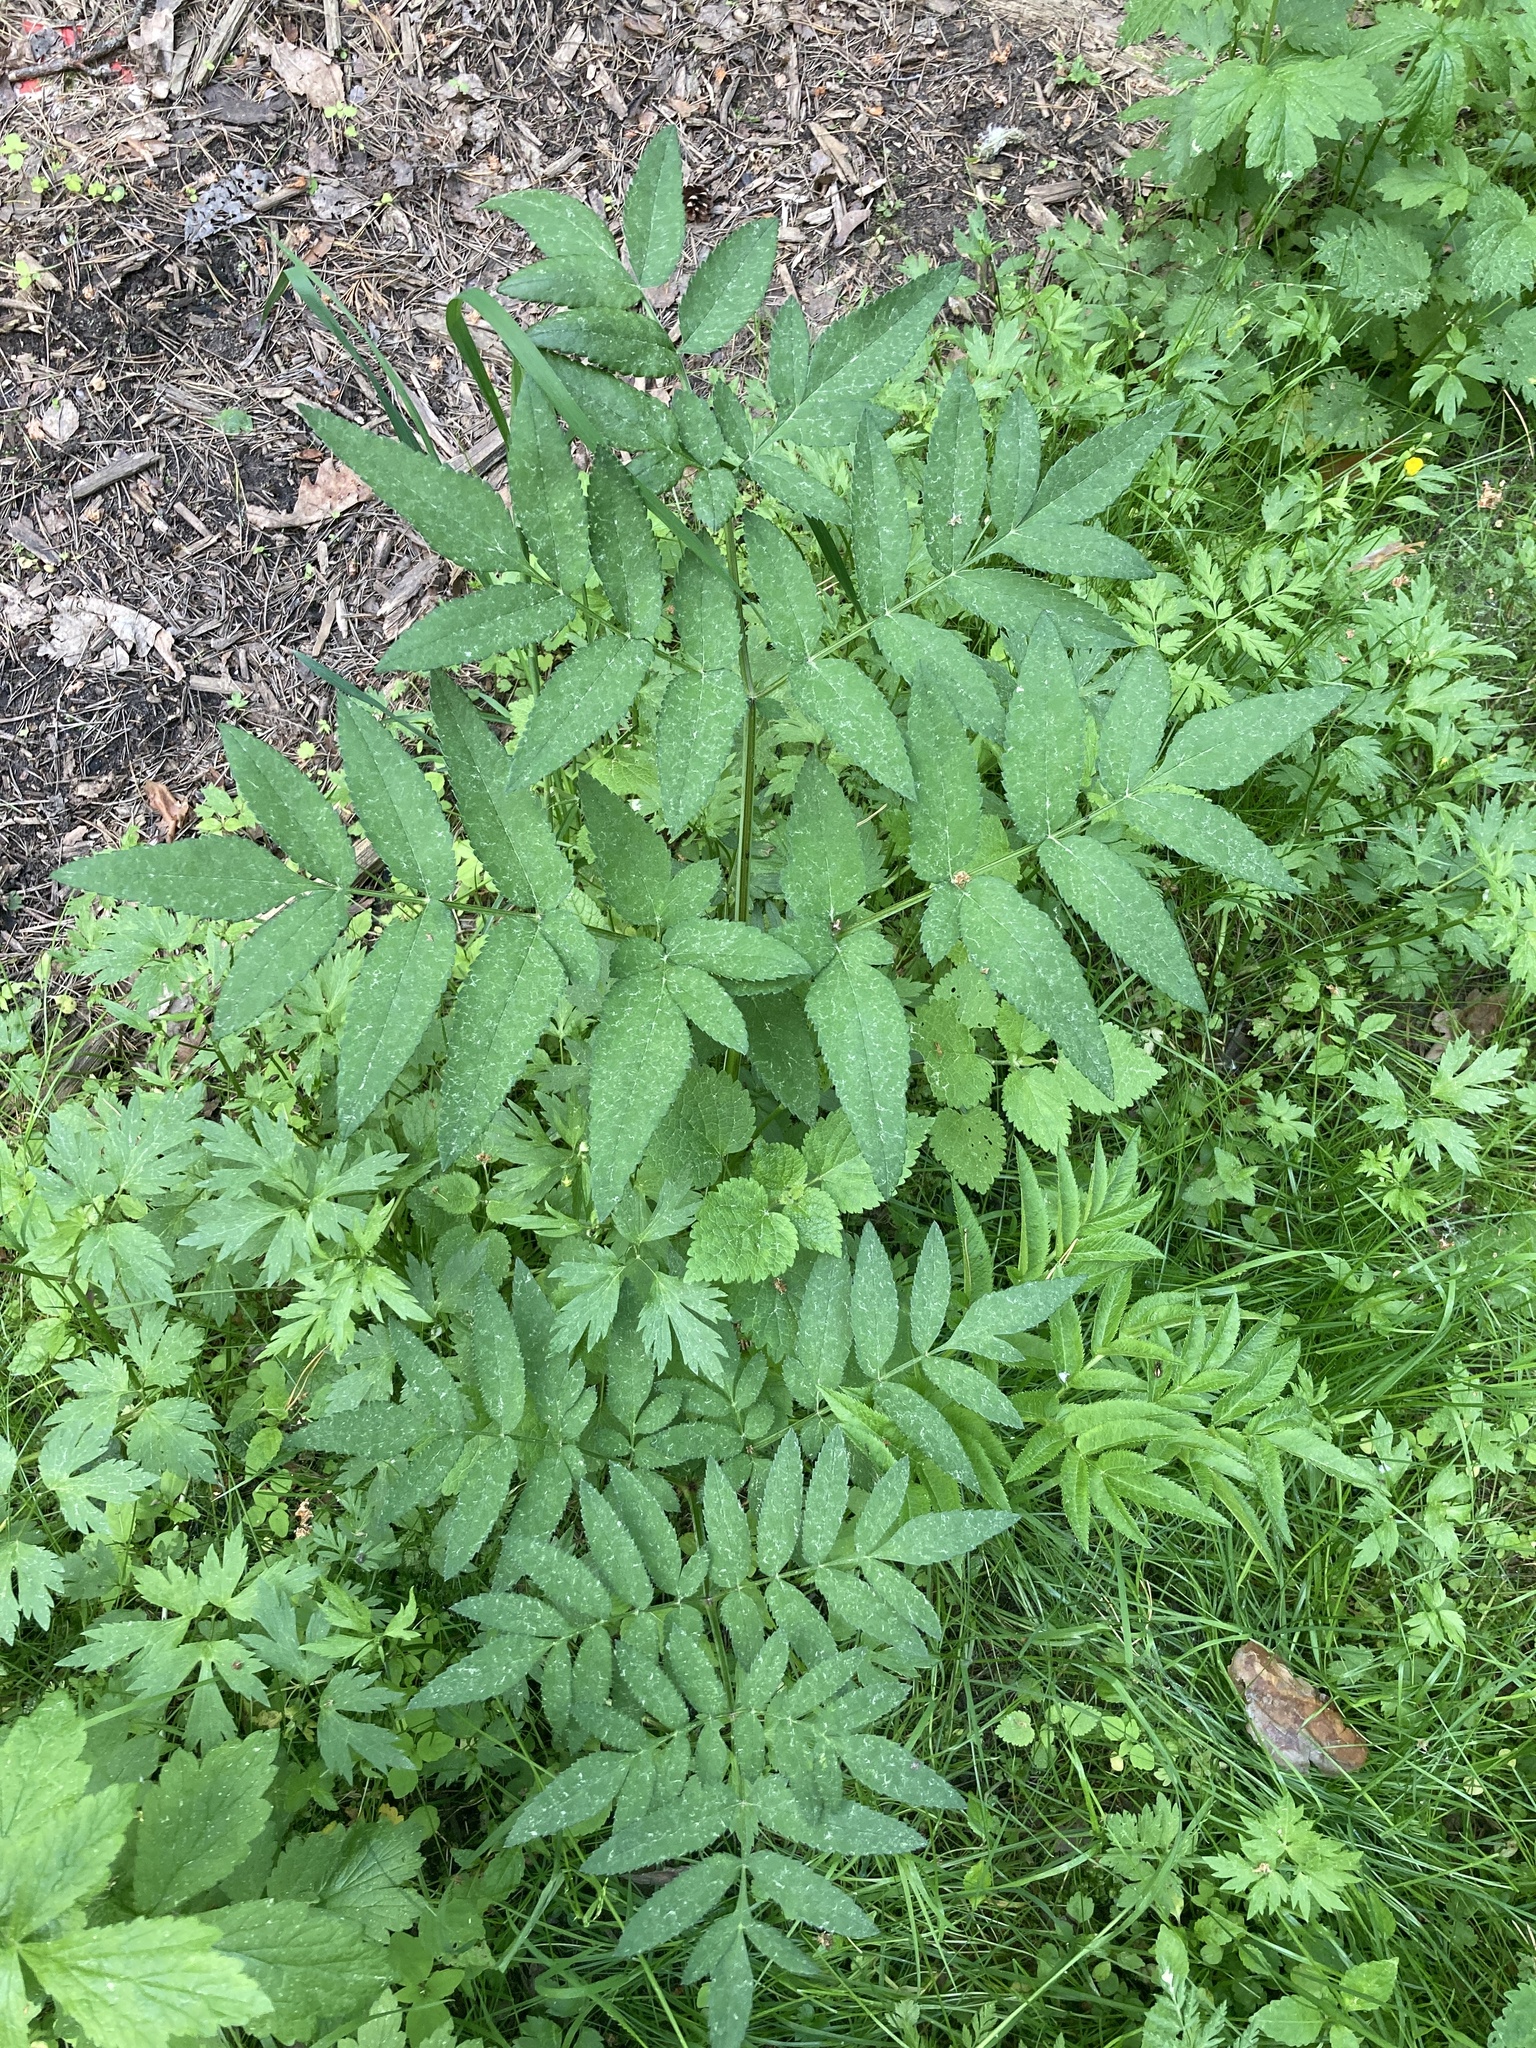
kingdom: Plantae
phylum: Tracheophyta
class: Magnoliopsida
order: Apiales
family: Apiaceae
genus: Angelica
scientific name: Angelica sylvestris
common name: Wild angelica
